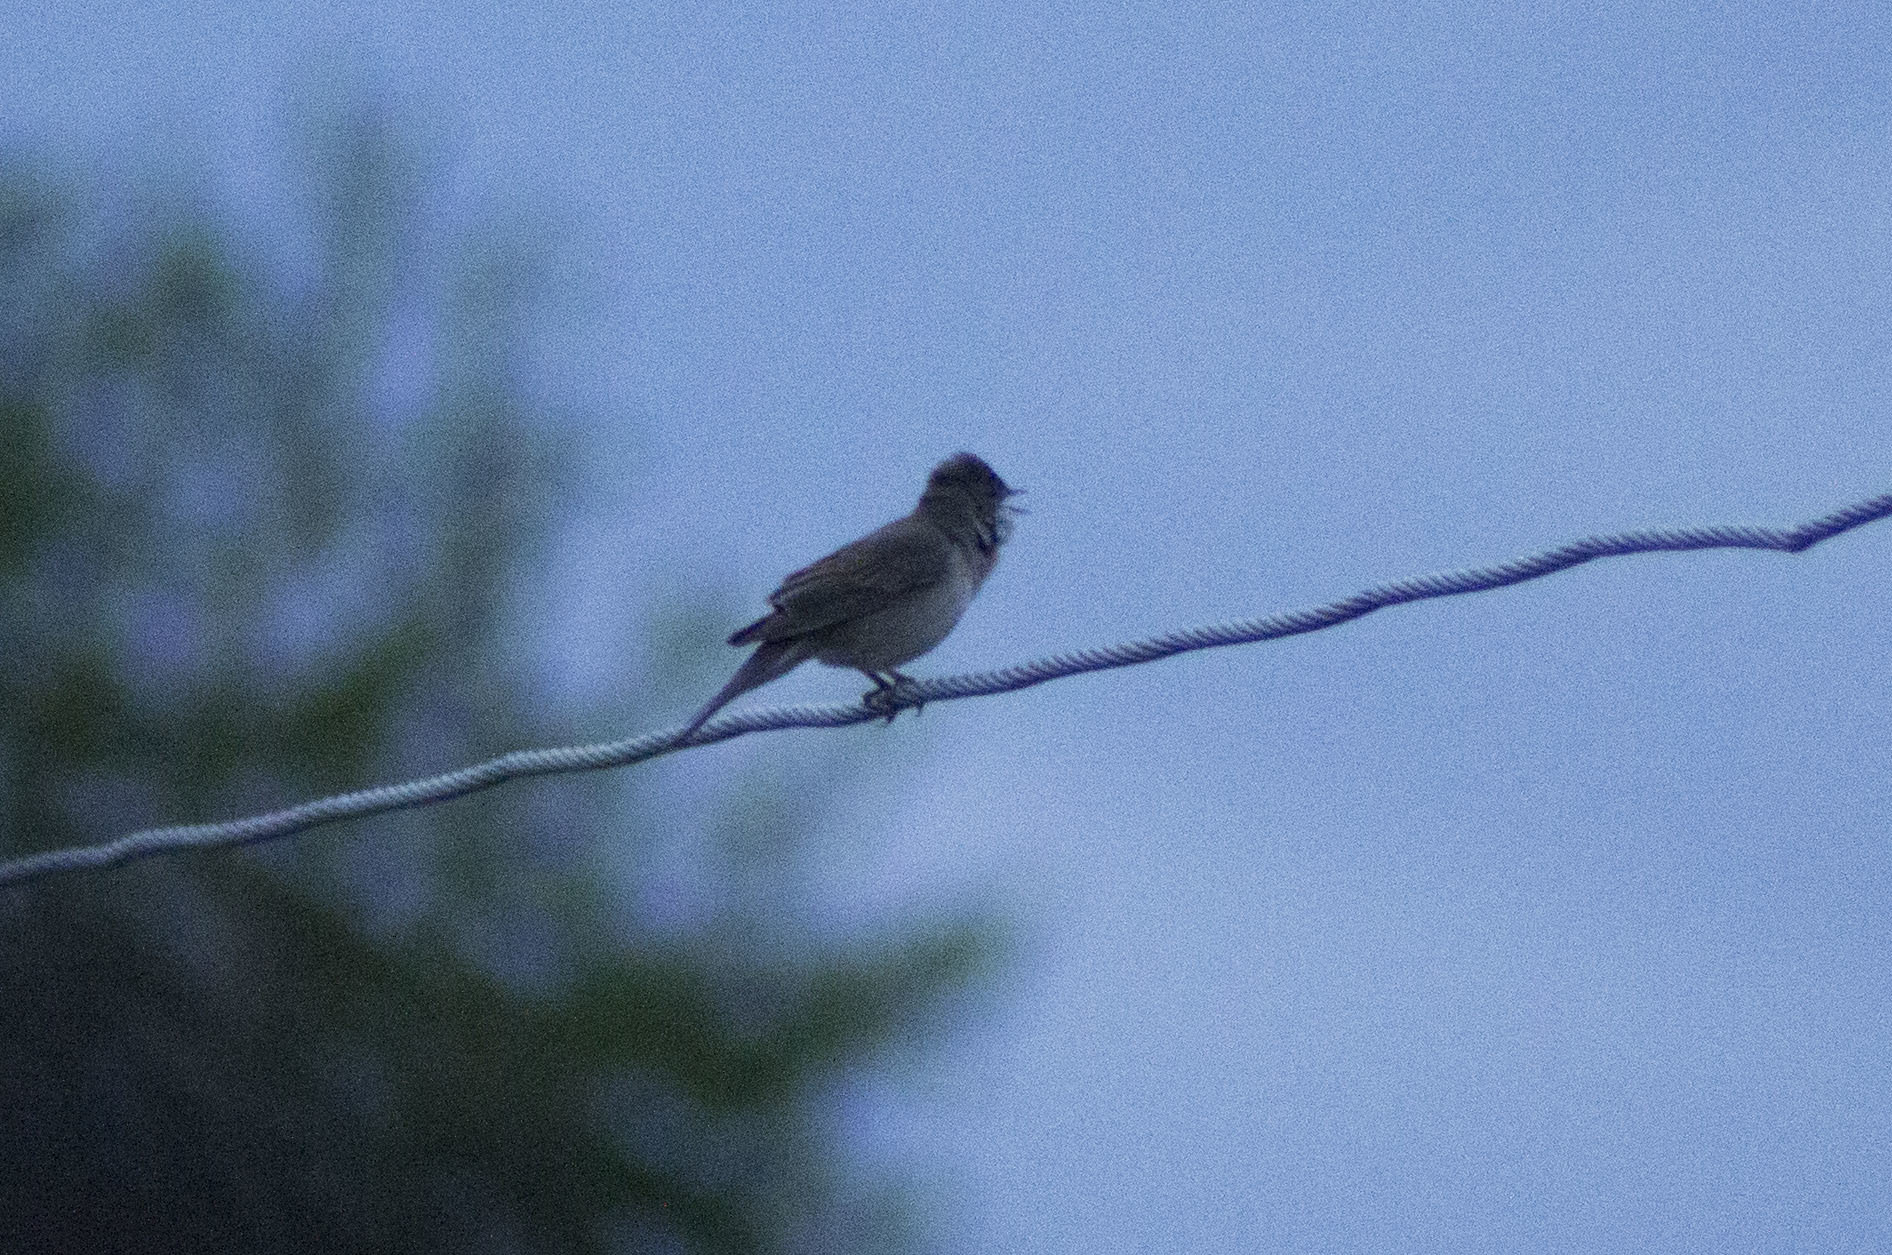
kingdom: Animalia
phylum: Chordata
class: Aves
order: Passeriformes
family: Sylviidae
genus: Sylvia
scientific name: Sylvia communis
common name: Common whitethroat
